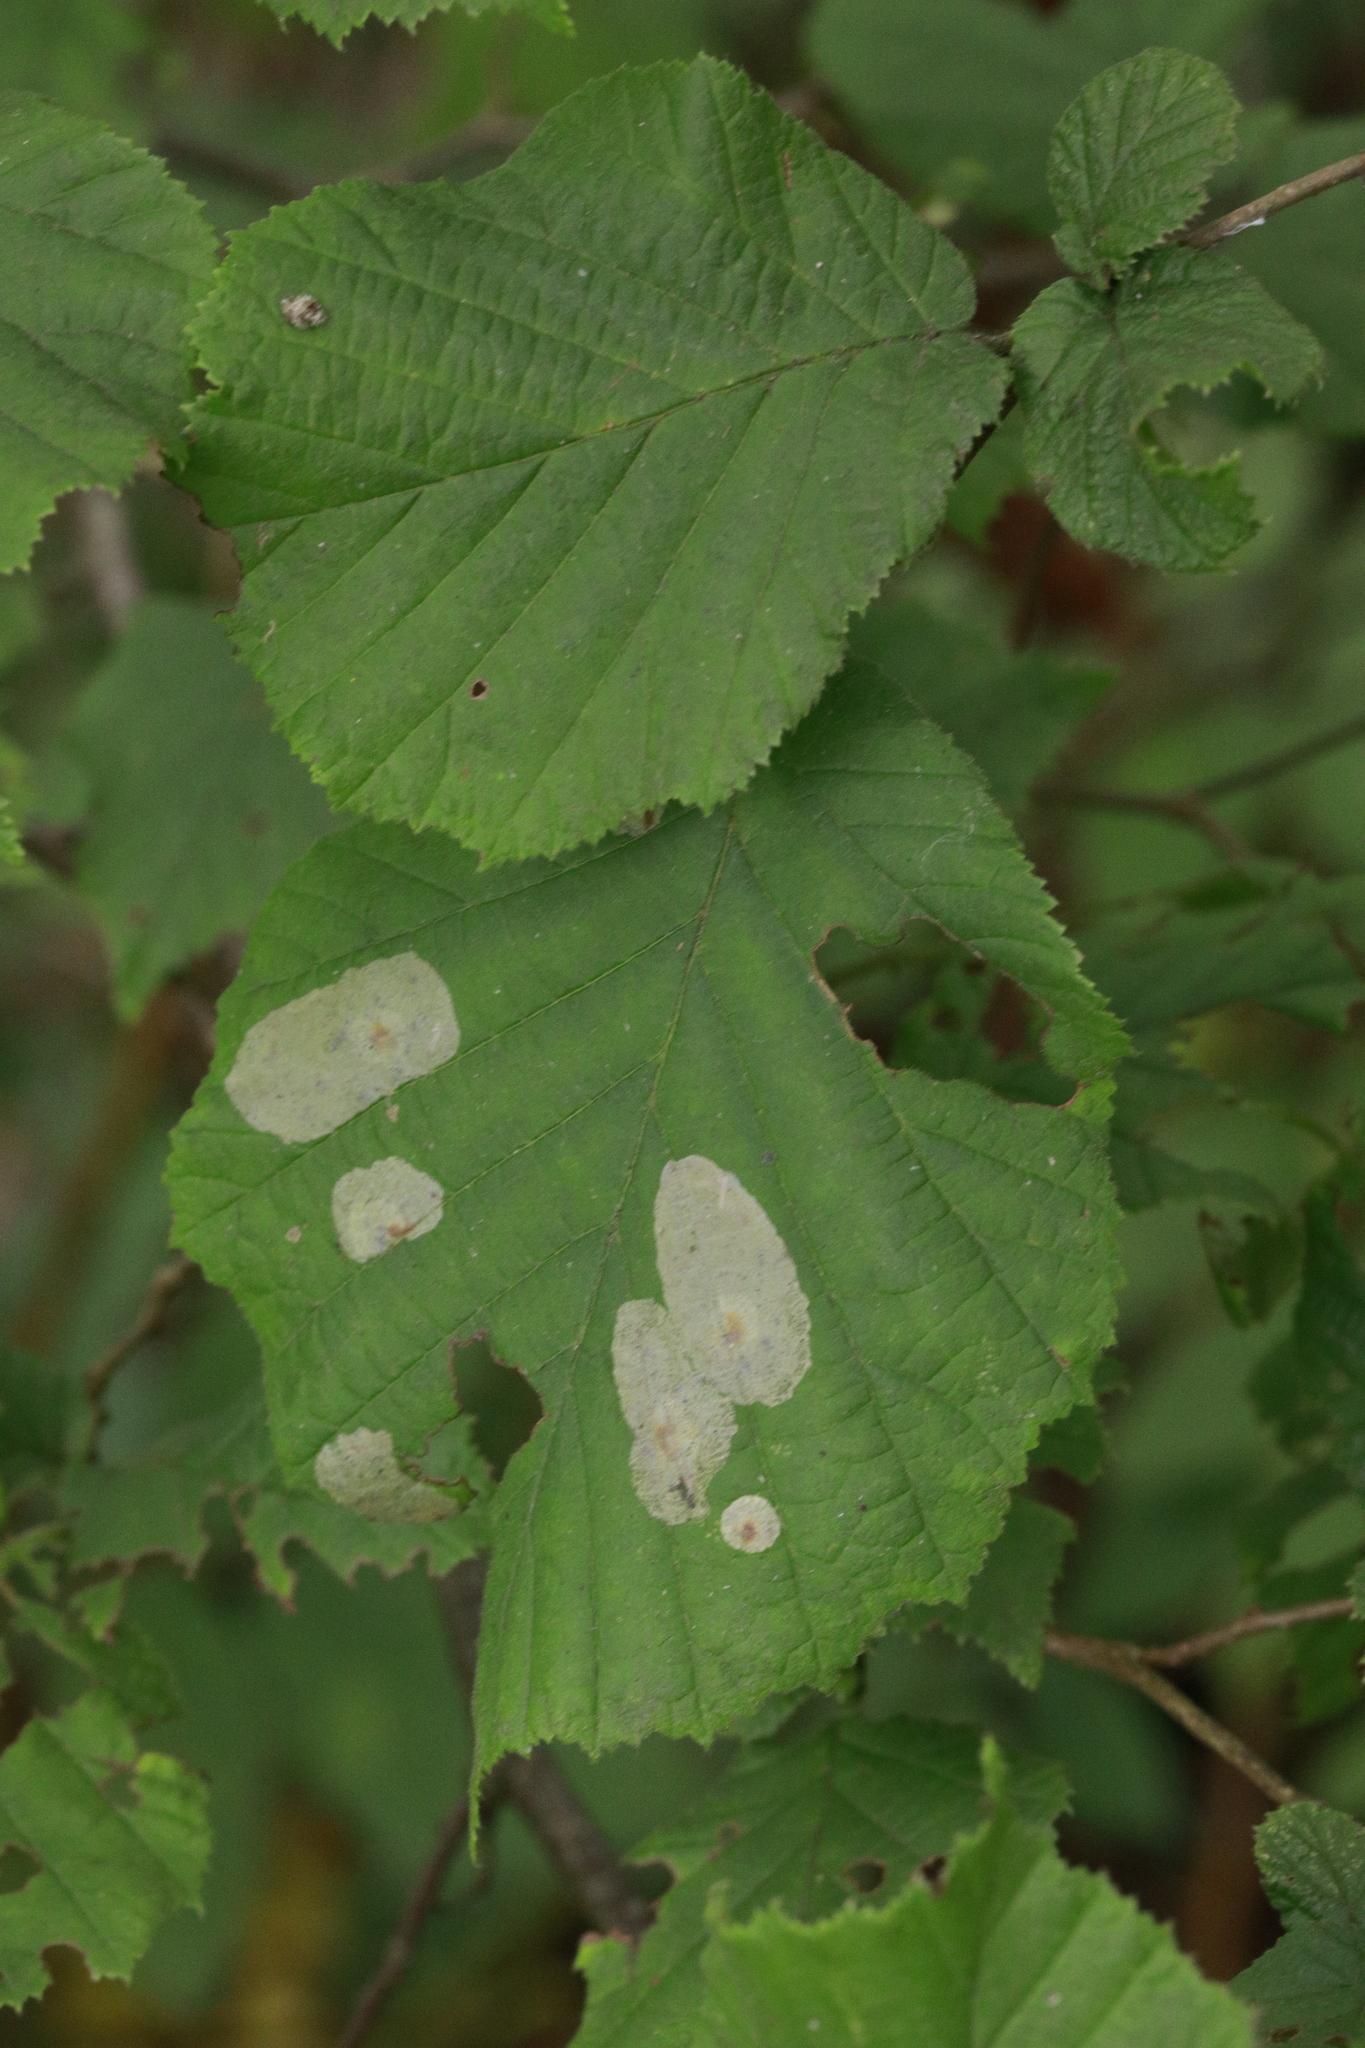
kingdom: Animalia
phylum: Arthropoda
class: Insecta
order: Lepidoptera
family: Gracillariidae
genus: Phyllonorycter
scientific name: Phyllonorycter coryli
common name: Nut-leaf blister moth
